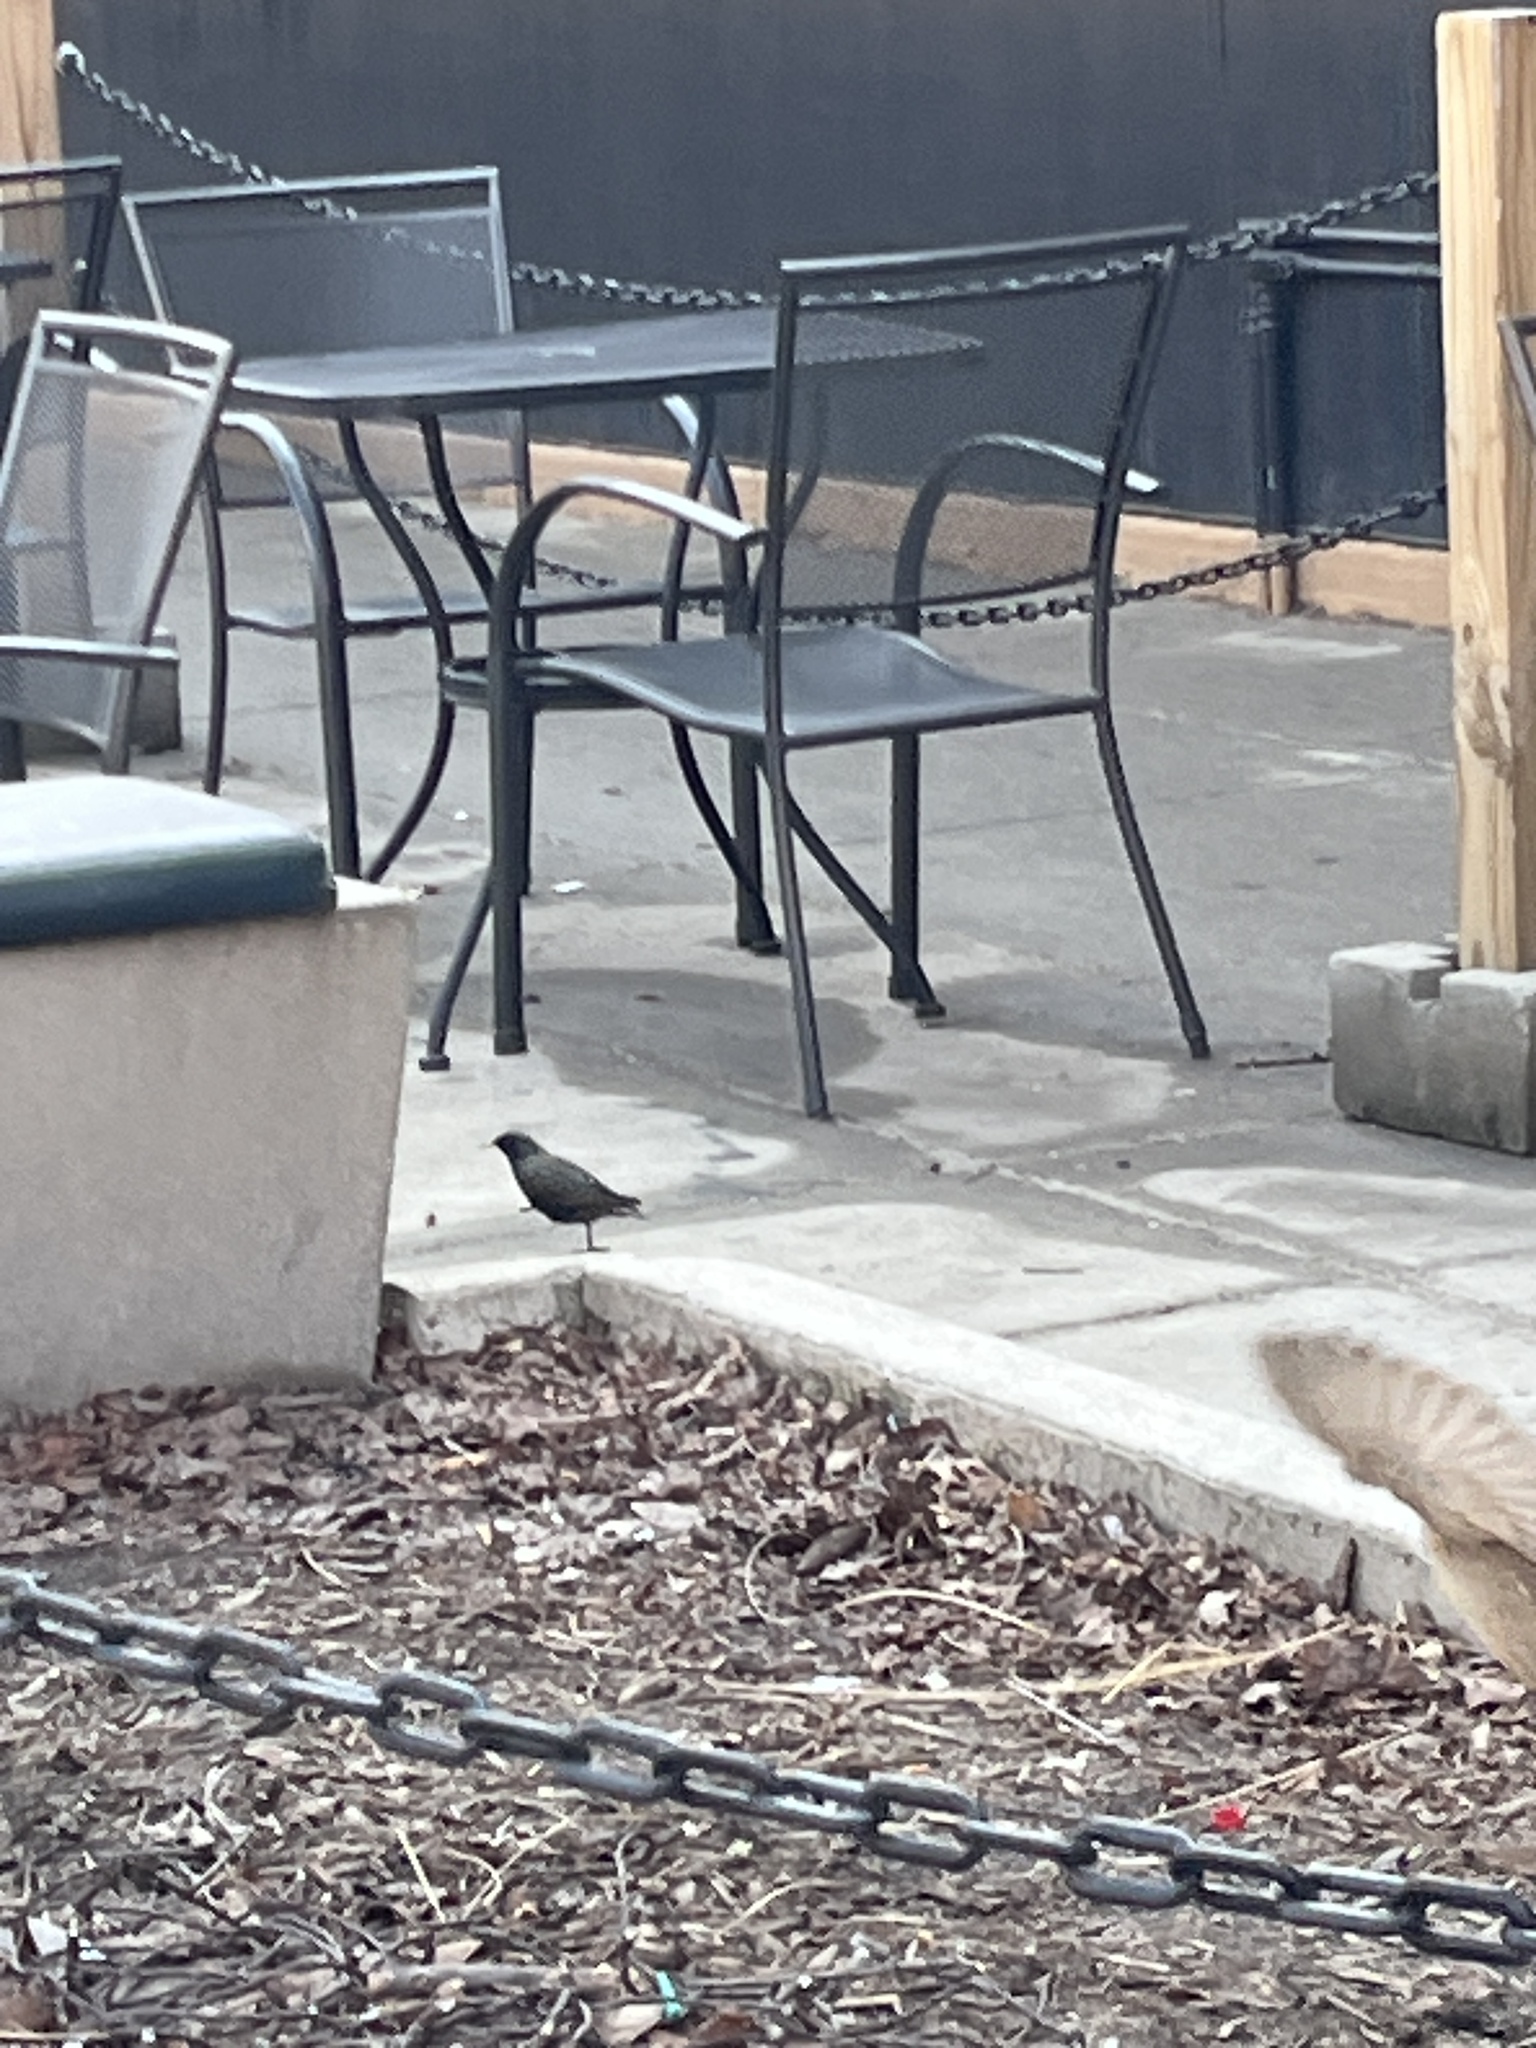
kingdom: Animalia
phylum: Chordata
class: Aves
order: Passeriformes
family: Sturnidae
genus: Sturnus
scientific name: Sturnus vulgaris
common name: Common starling
